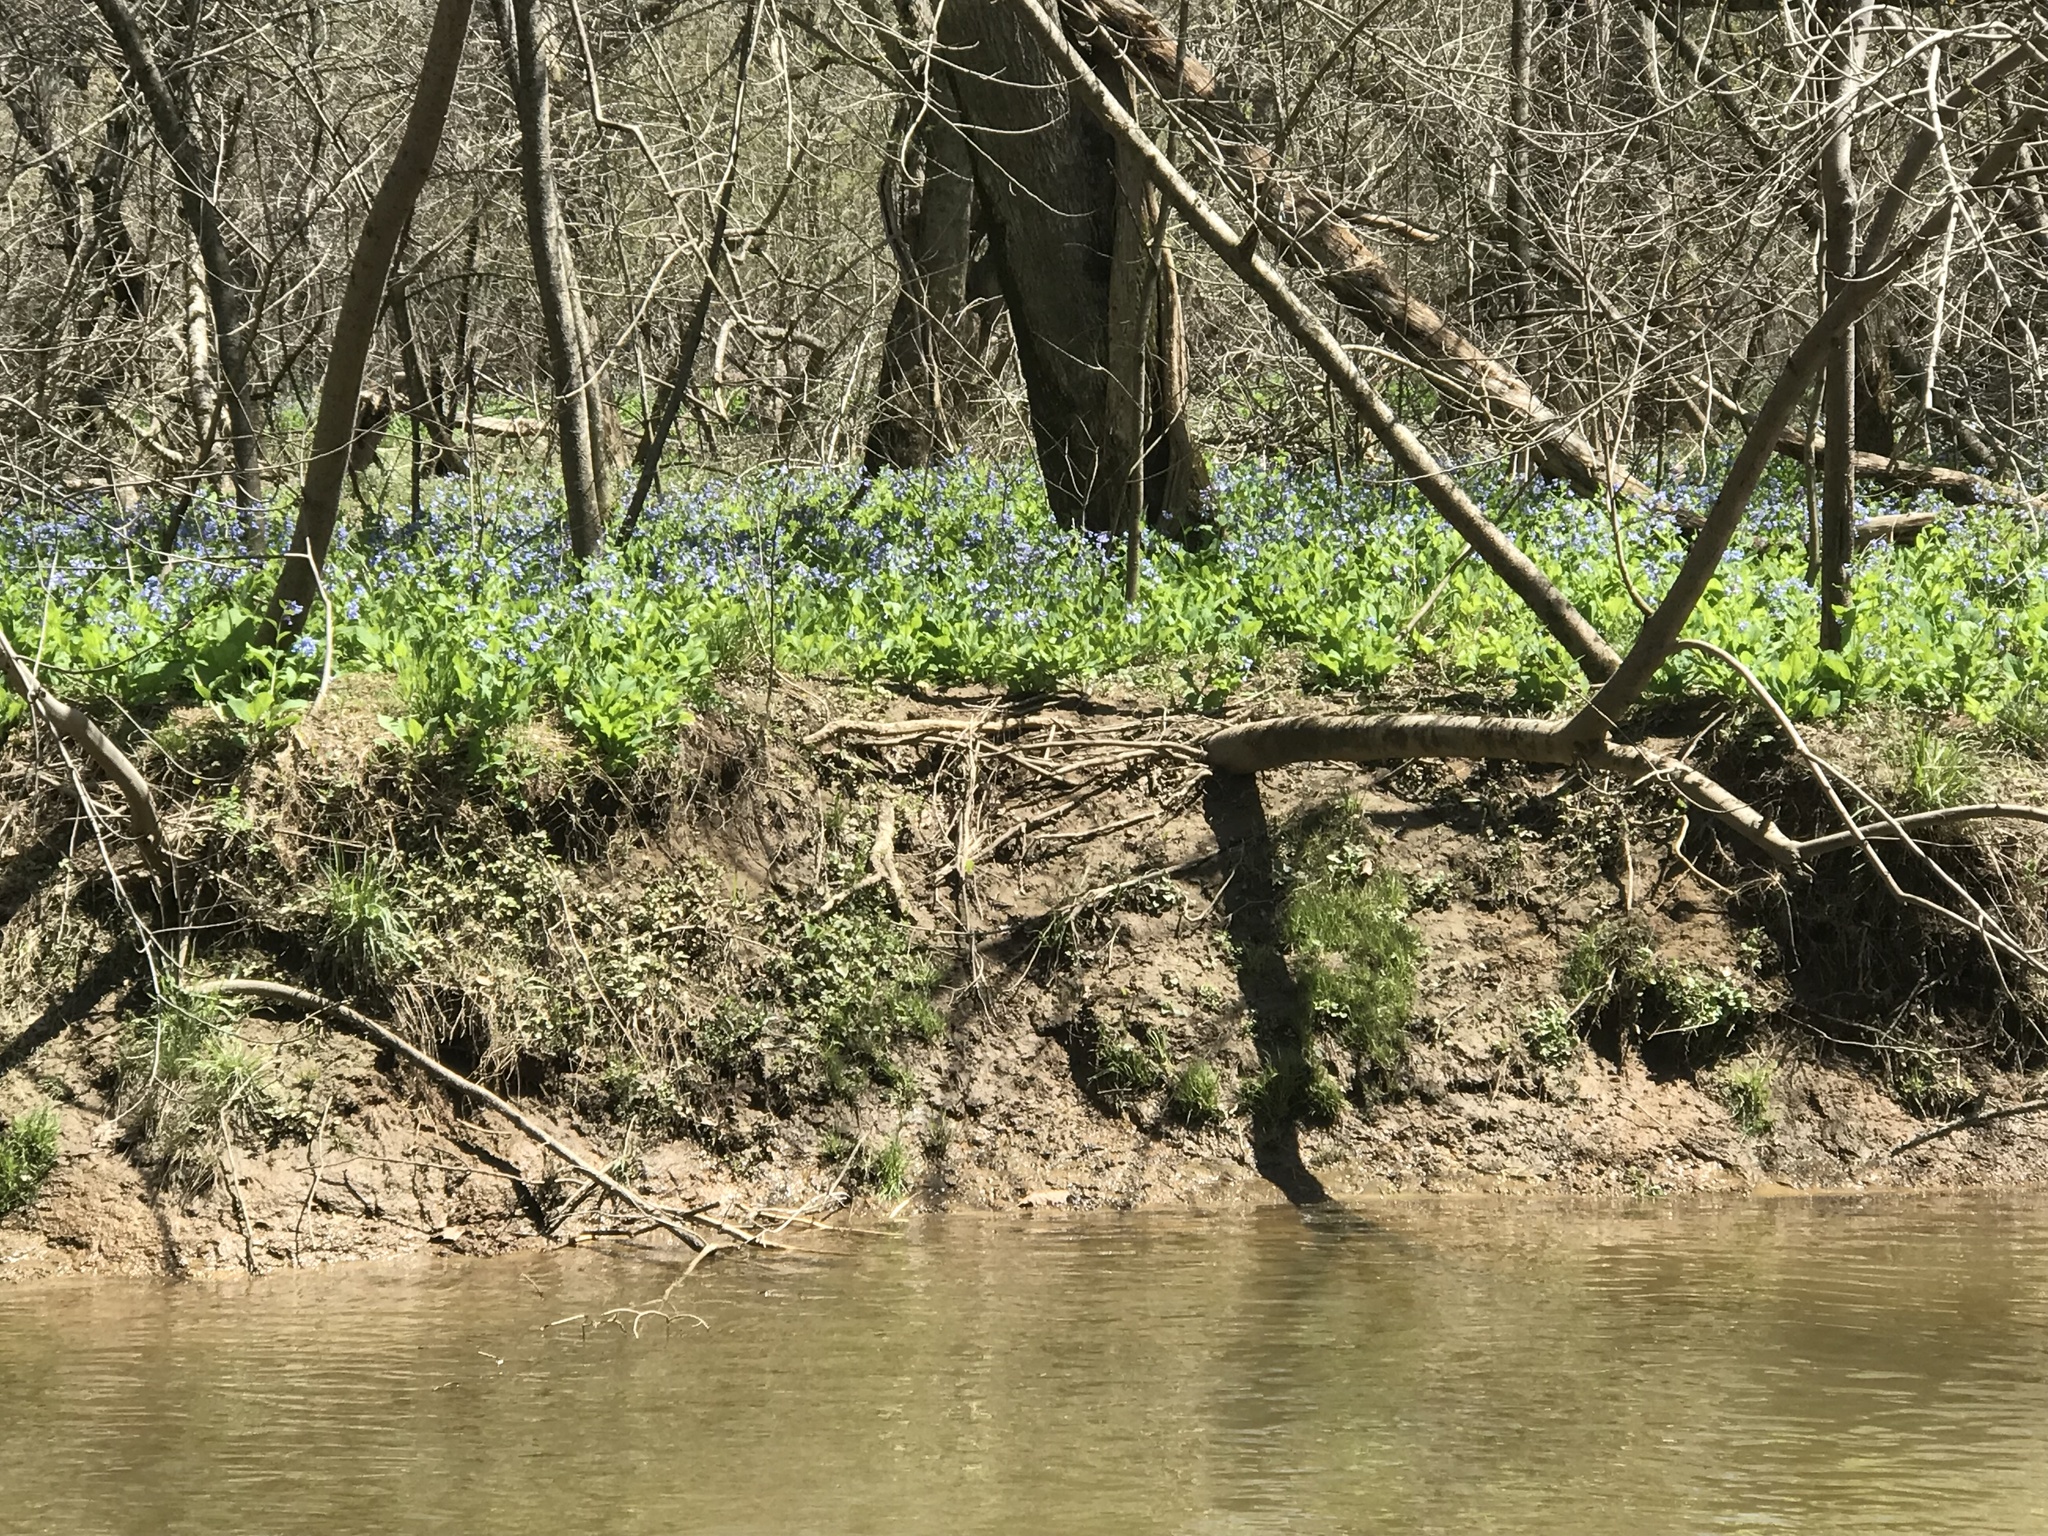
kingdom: Plantae
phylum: Tracheophyta
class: Magnoliopsida
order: Boraginales
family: Boraginaceae
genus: Mertensia
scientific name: Mertensia virginica
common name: Virginia bluebells
